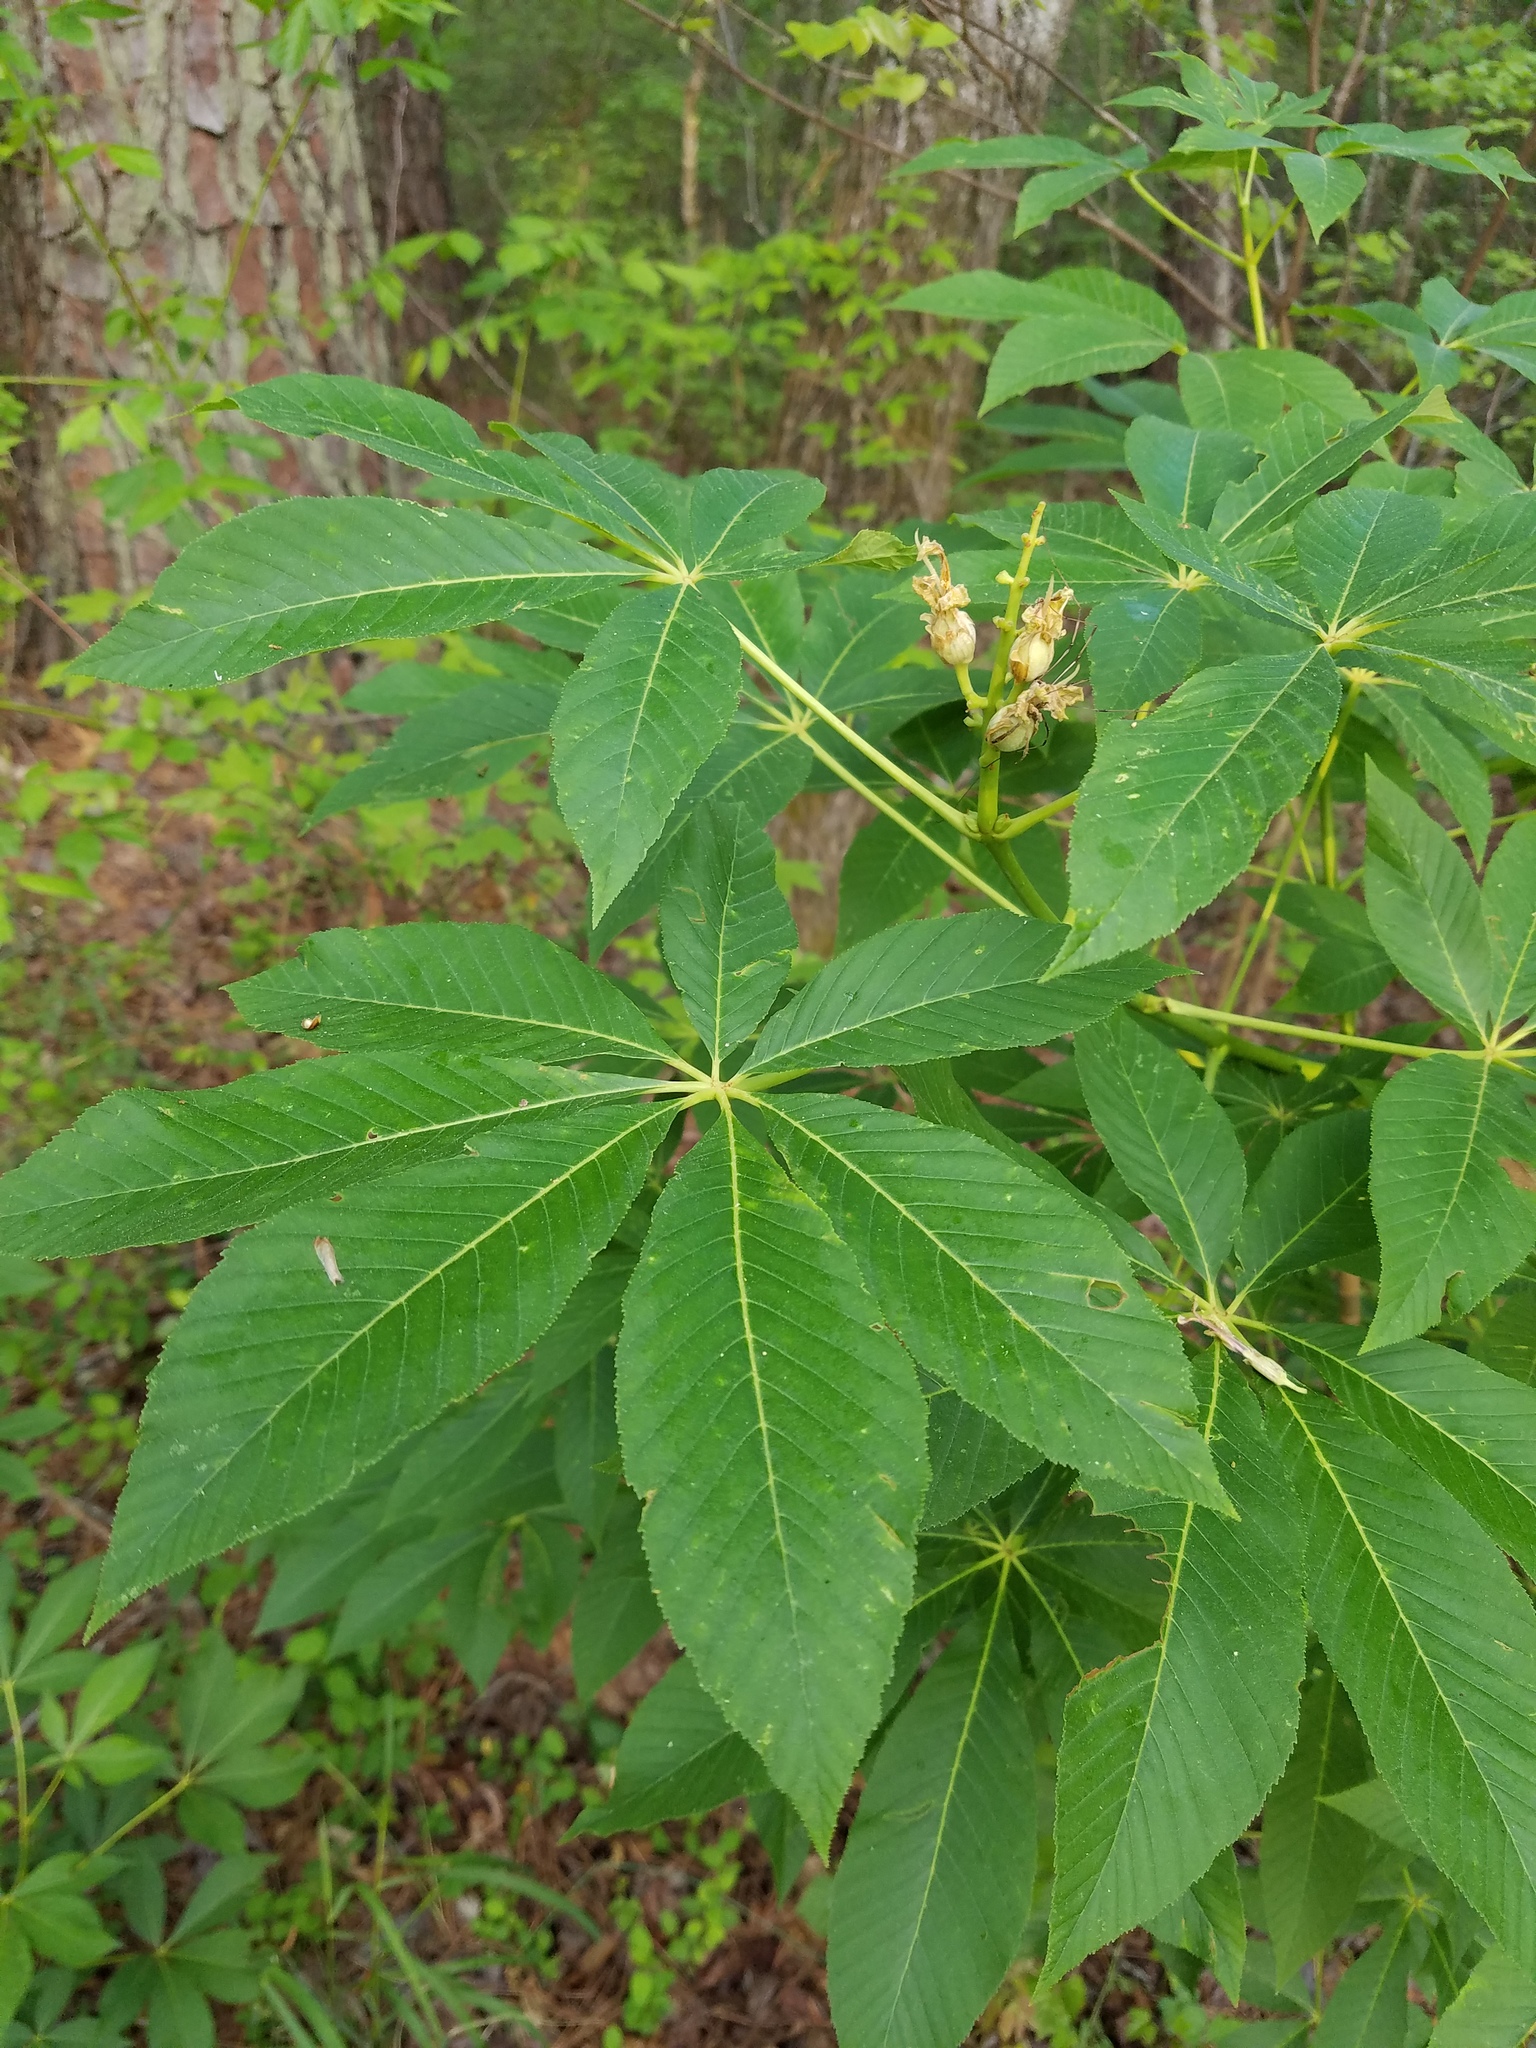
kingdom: Plantae
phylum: Tracheophyta
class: Magnoliopsida
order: Sapindales
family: Sapindaceae
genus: Aesculus
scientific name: Aesculus sylvatica
